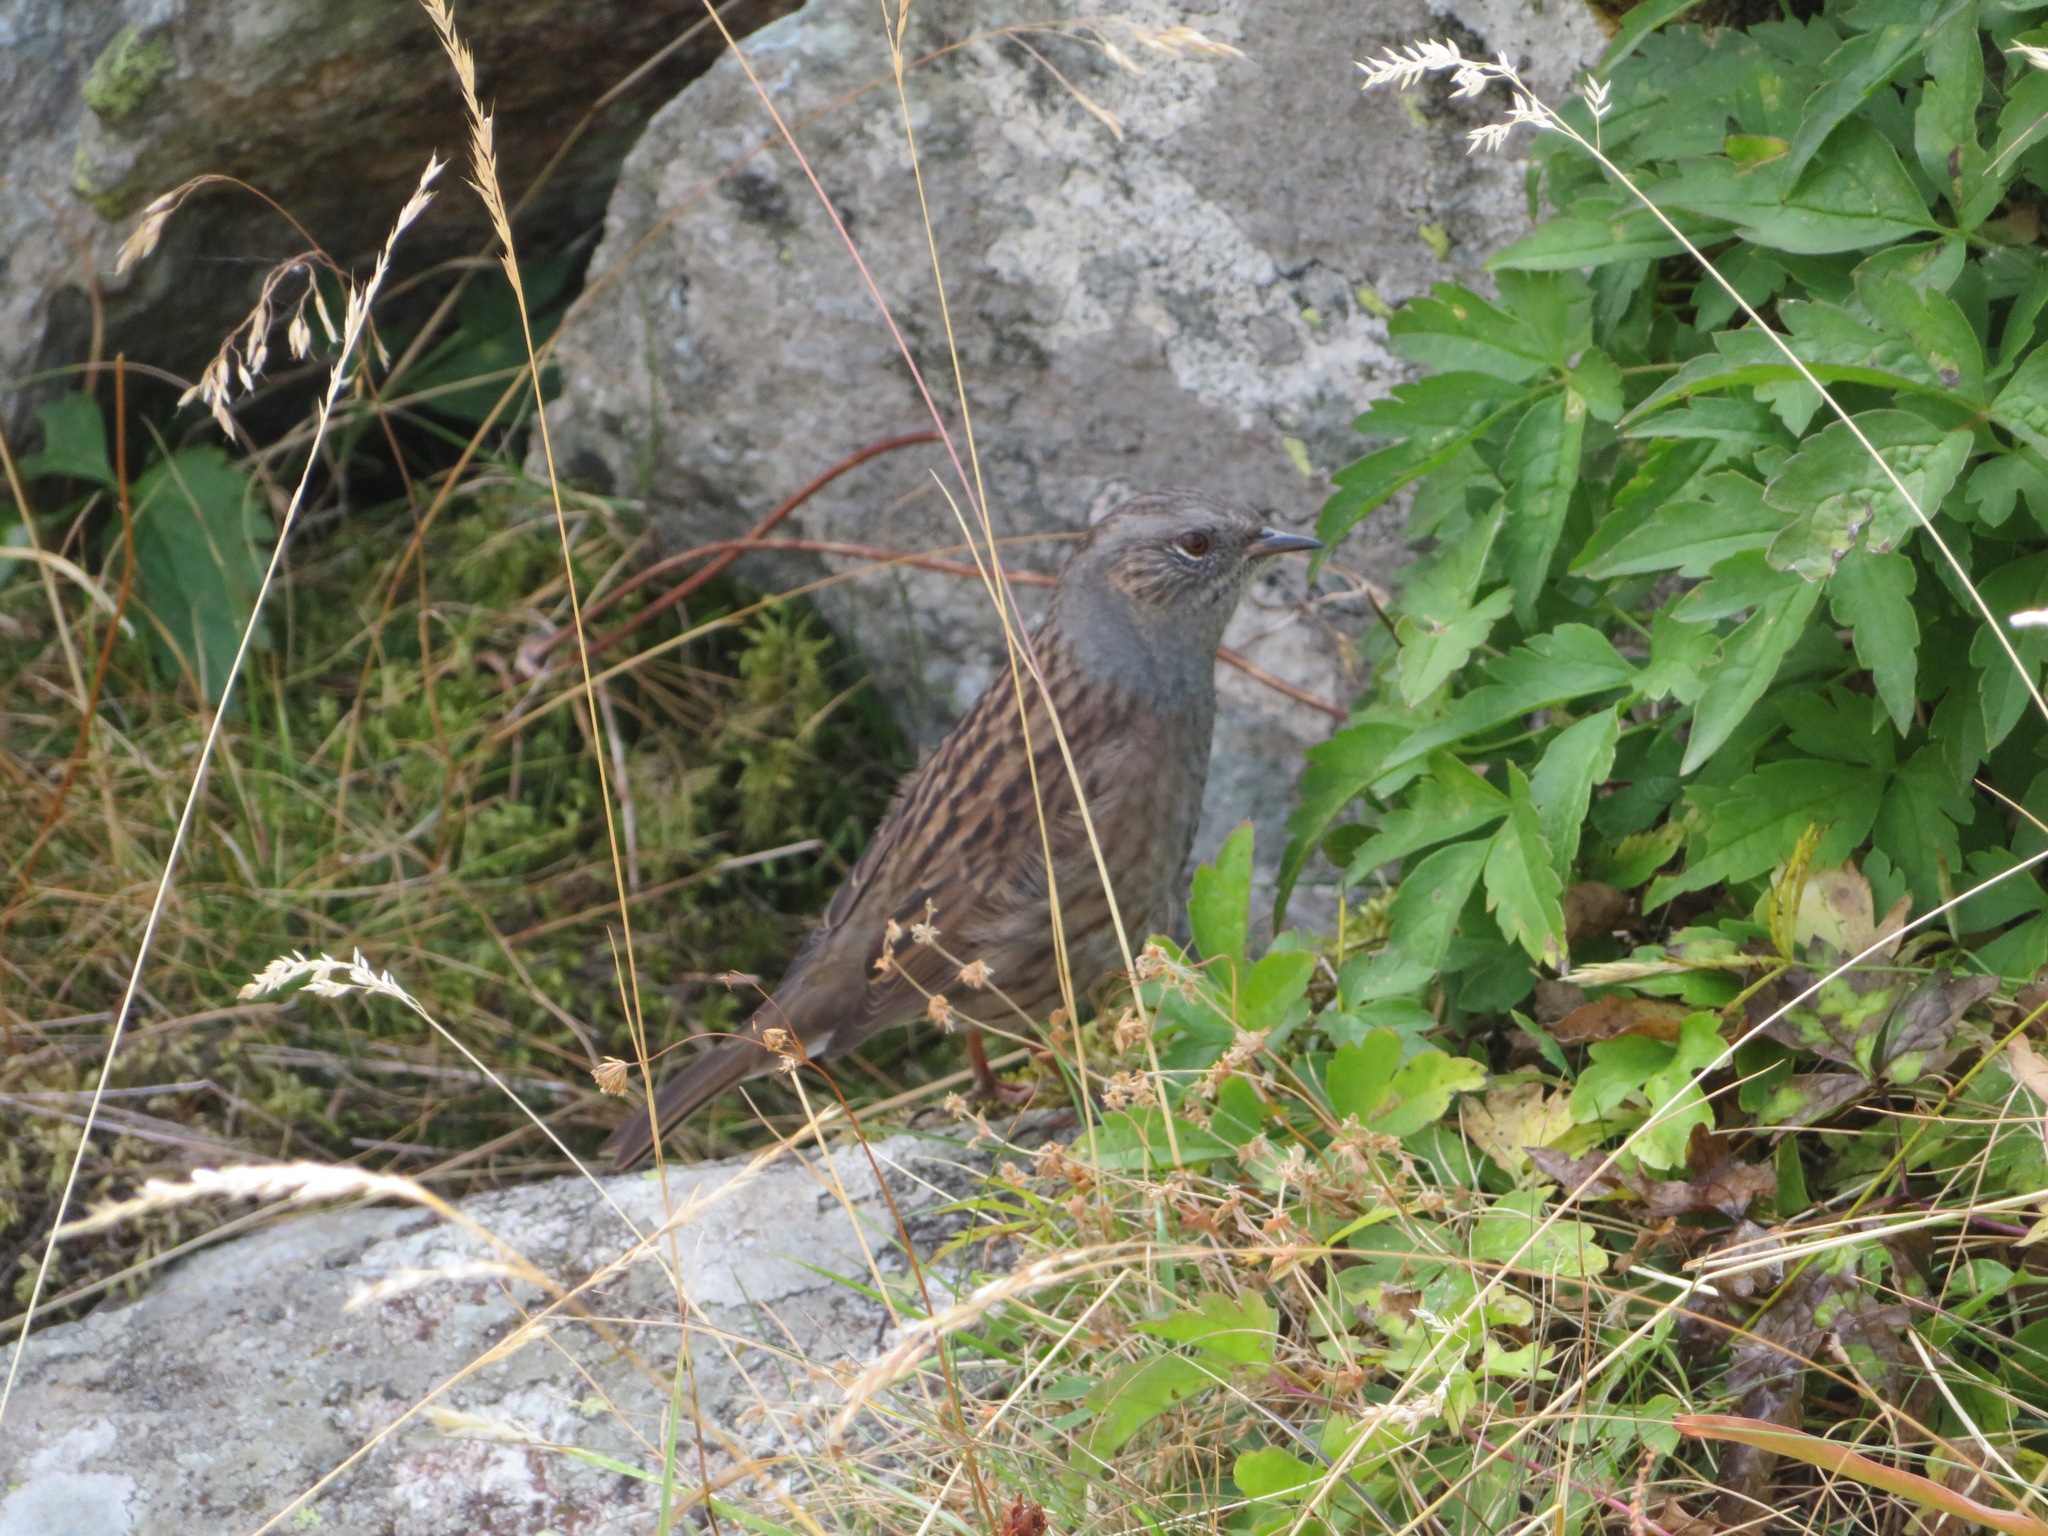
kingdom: Animalia
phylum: Chordata
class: Aves
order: Passeriformes
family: Prunellidae
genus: Prunella
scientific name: Prunella modularis
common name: Dunnock
